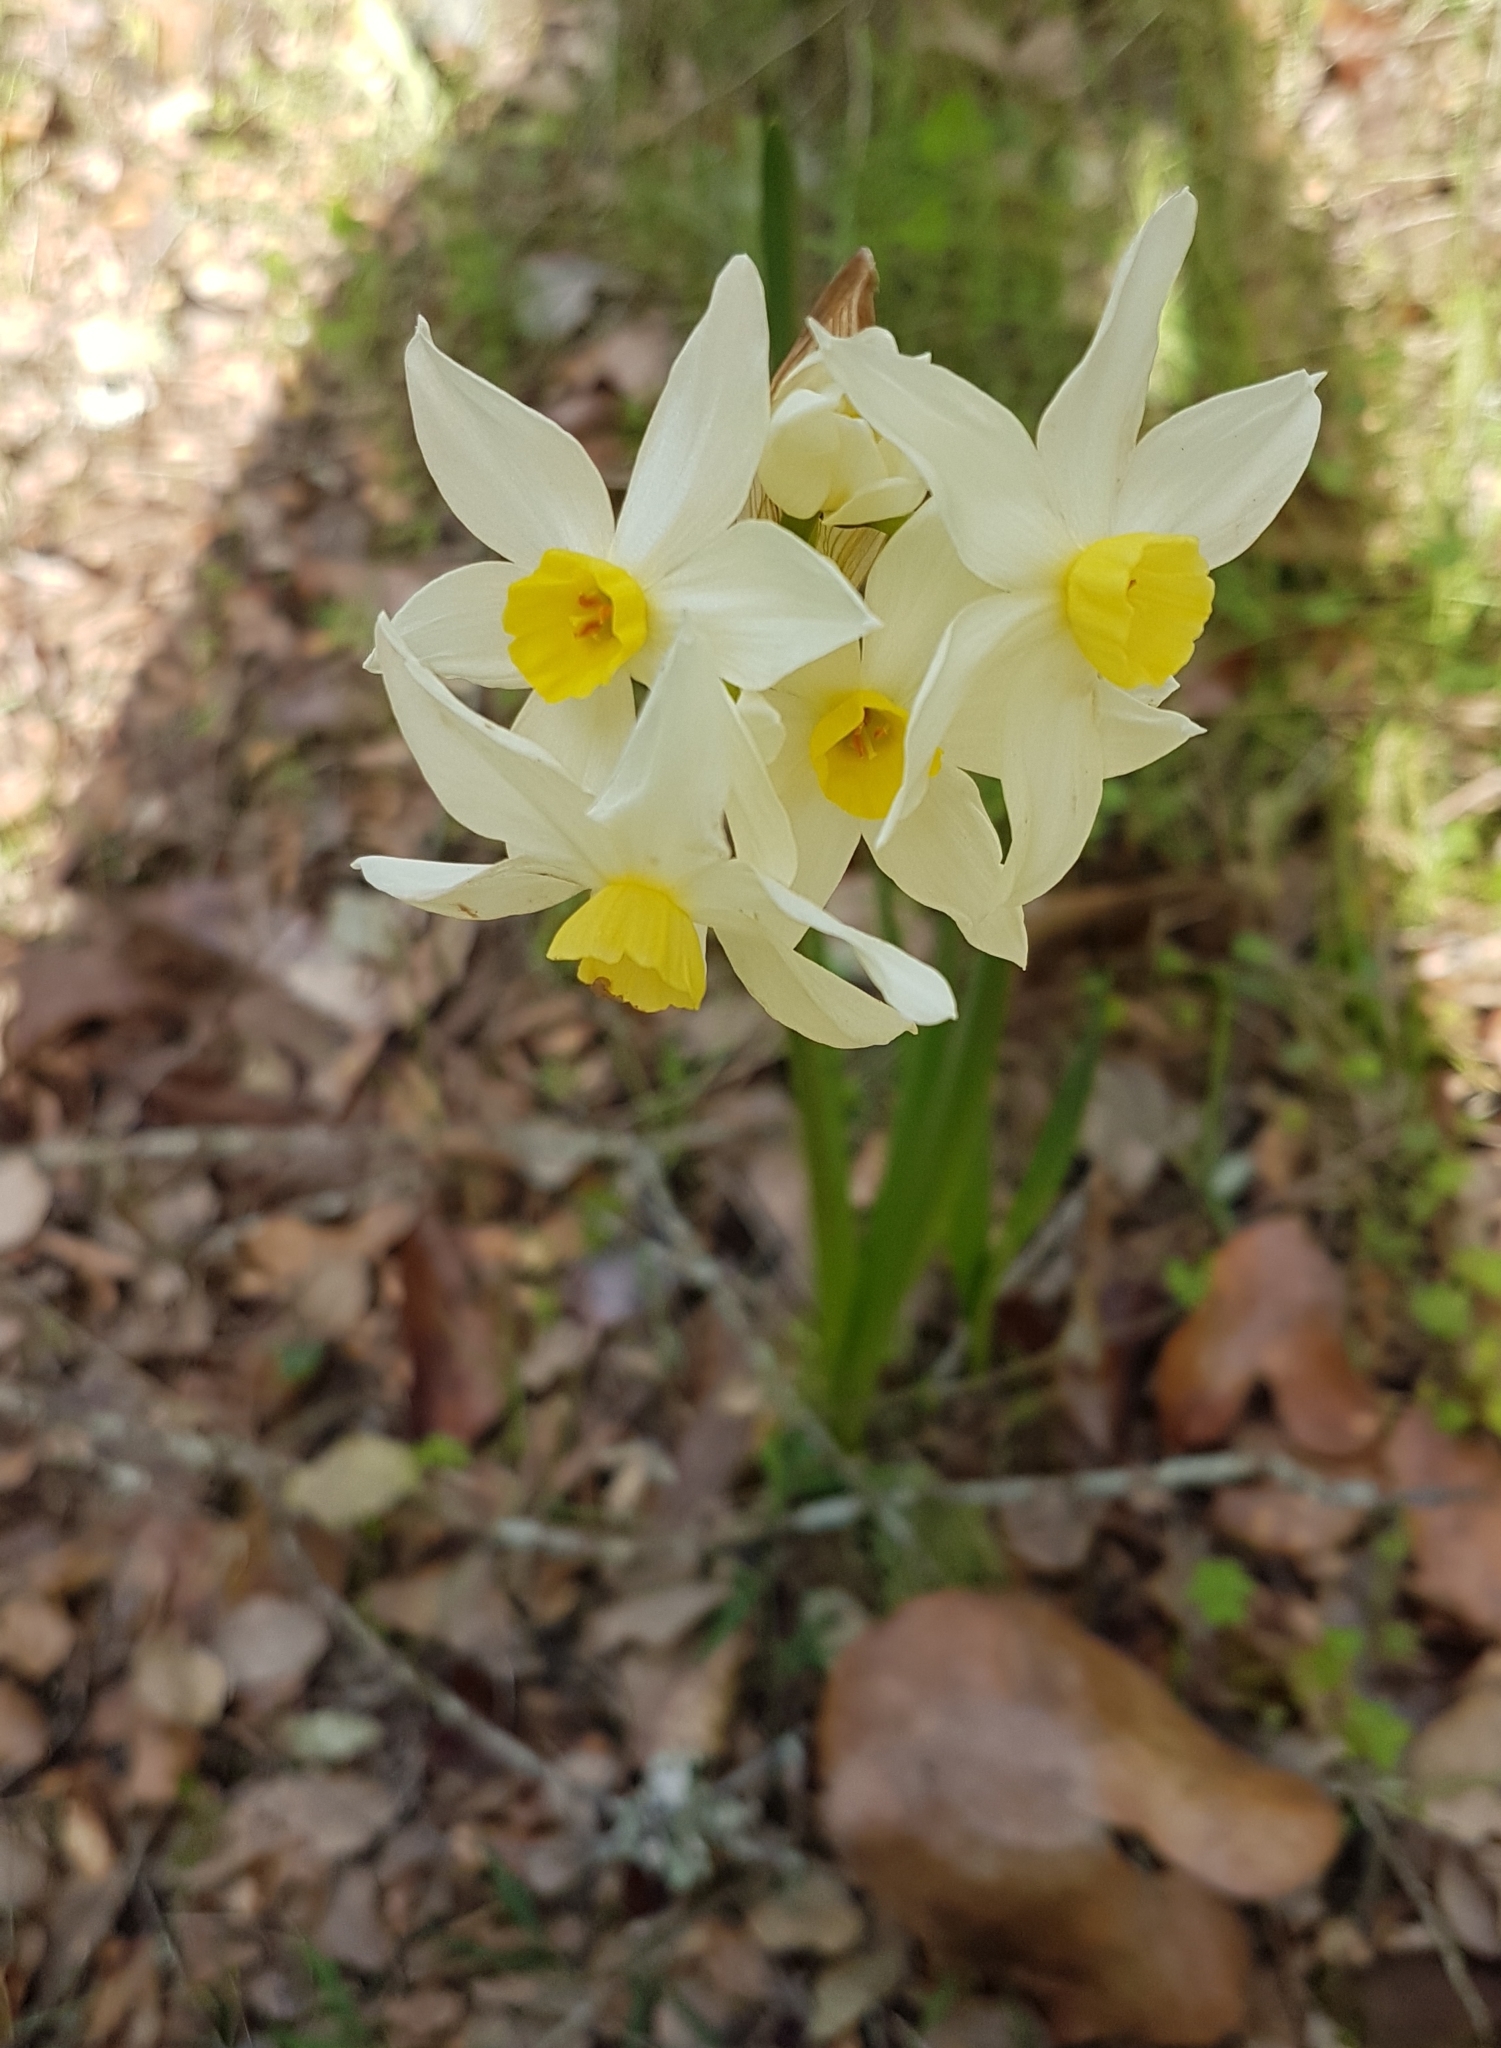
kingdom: Plantae
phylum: Tracheophyta
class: Liliopsida
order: Asparagales
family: Amaryllidaceae
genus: Narcissus
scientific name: Narcissus tazetta
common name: Bunch-flowered daffodil
